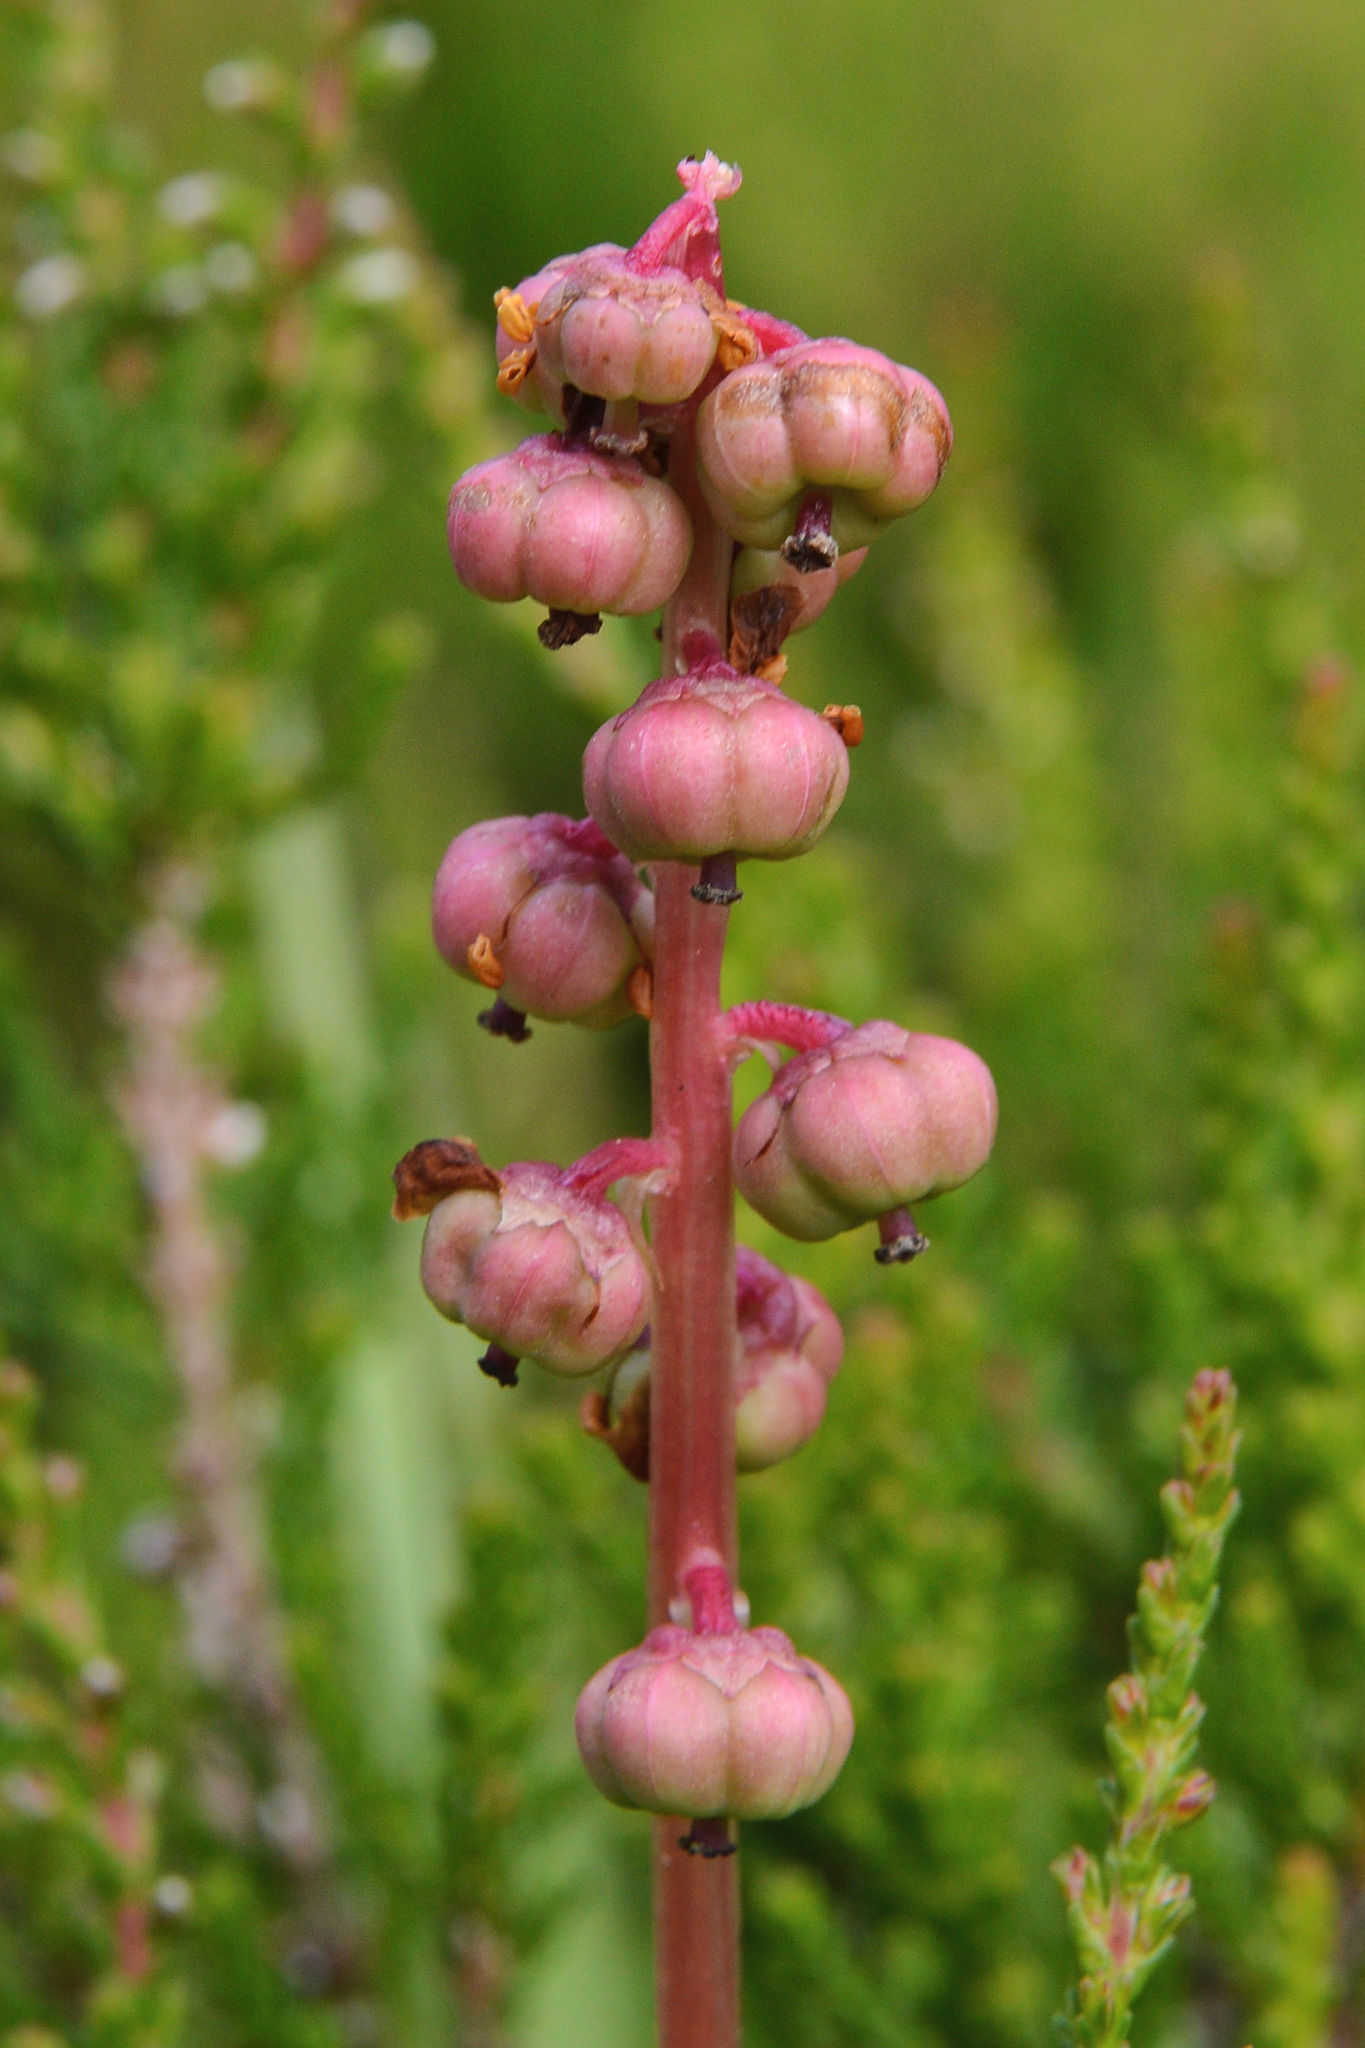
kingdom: Plantae
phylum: Tracheophyta
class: Magnoliopsida
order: Ericales
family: Ericaceae
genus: Pyrola
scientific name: Pyrola minor
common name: Common wintergreen
